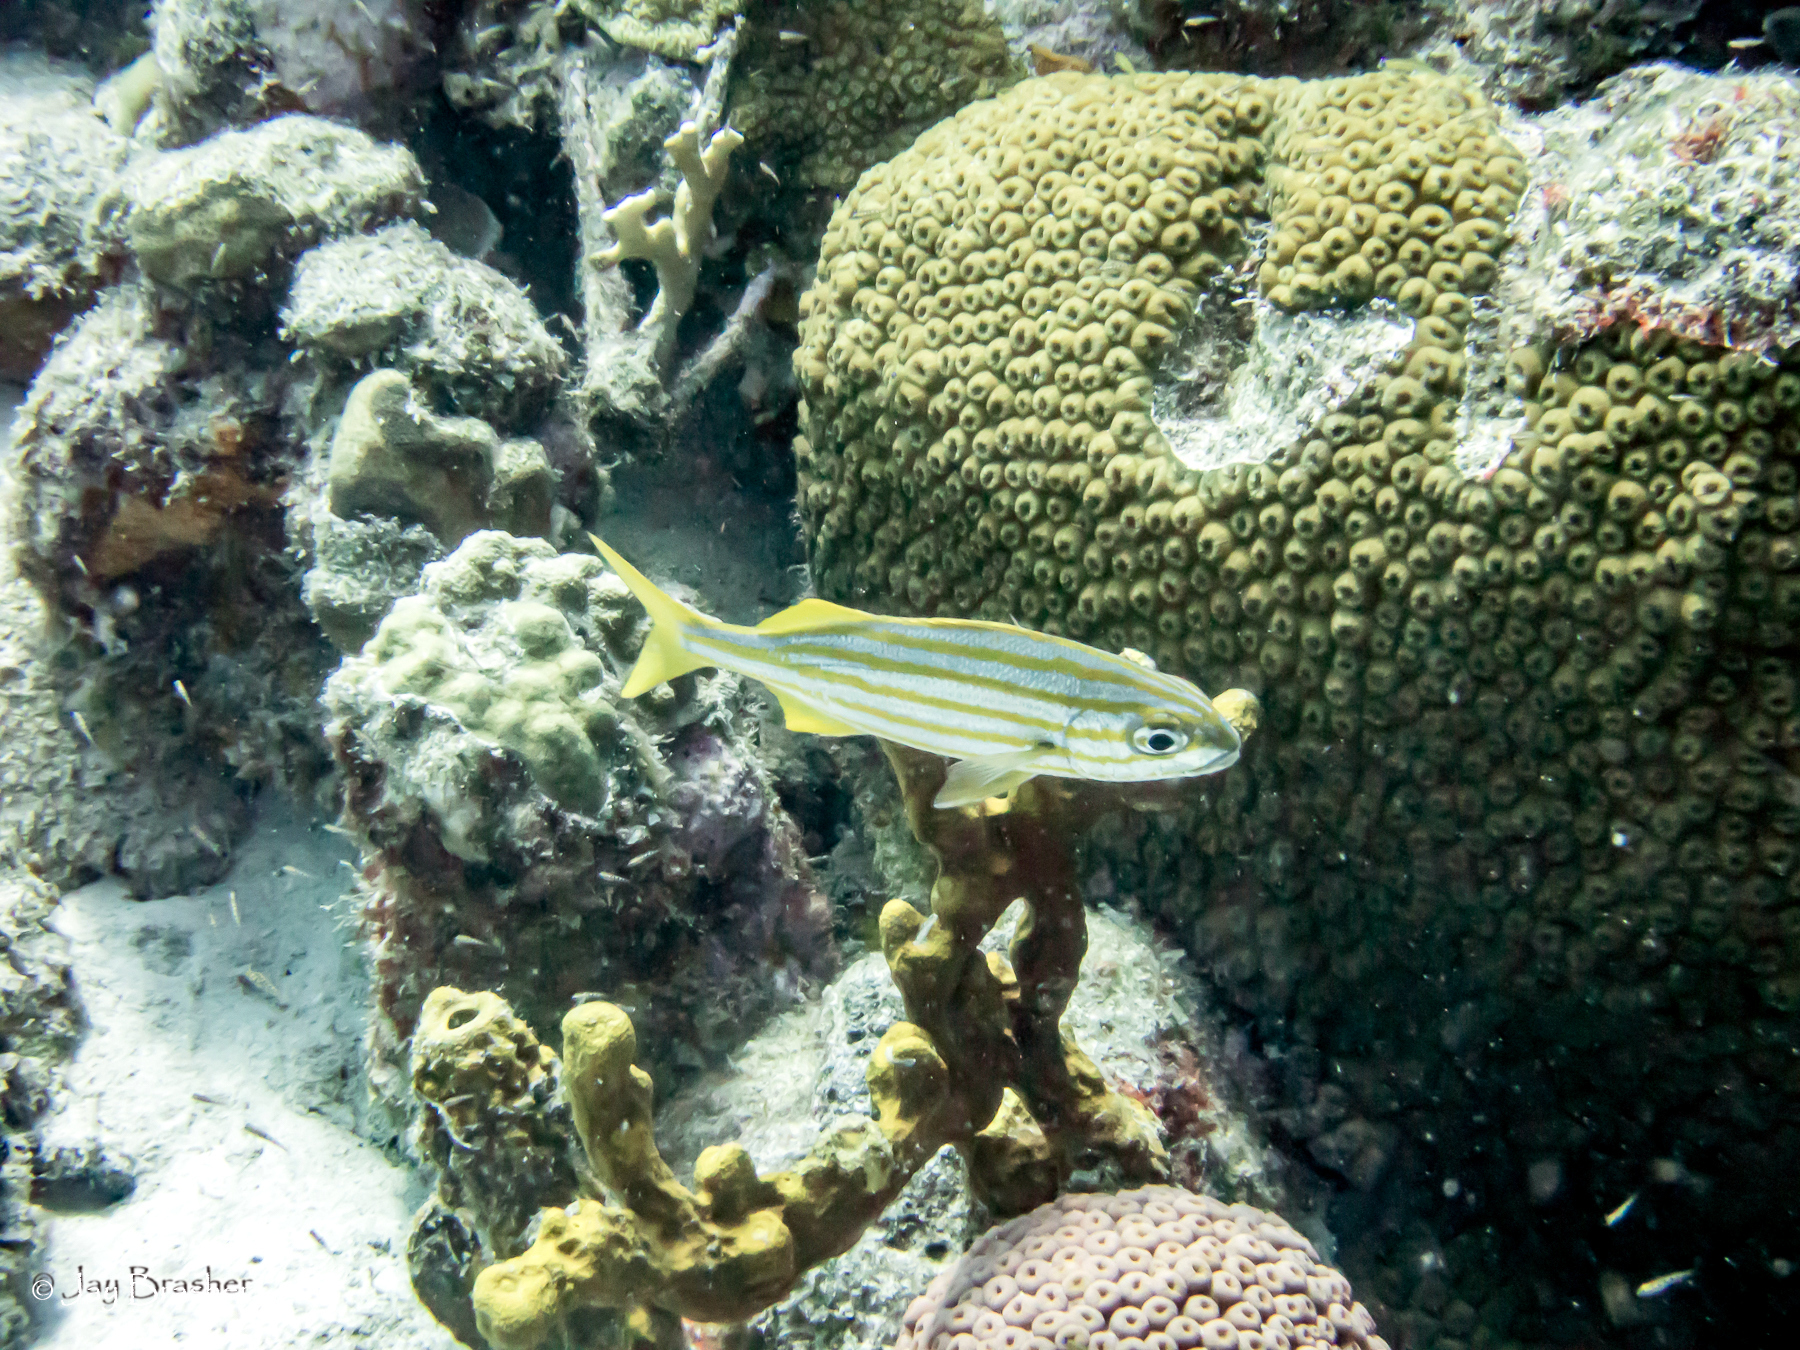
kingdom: Animalia
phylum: Porifera
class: Demospongiae
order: Verongiida
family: Aplysinidae
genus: Aplysina
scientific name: Aplysina fulva
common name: Scattered pore rope sponge
